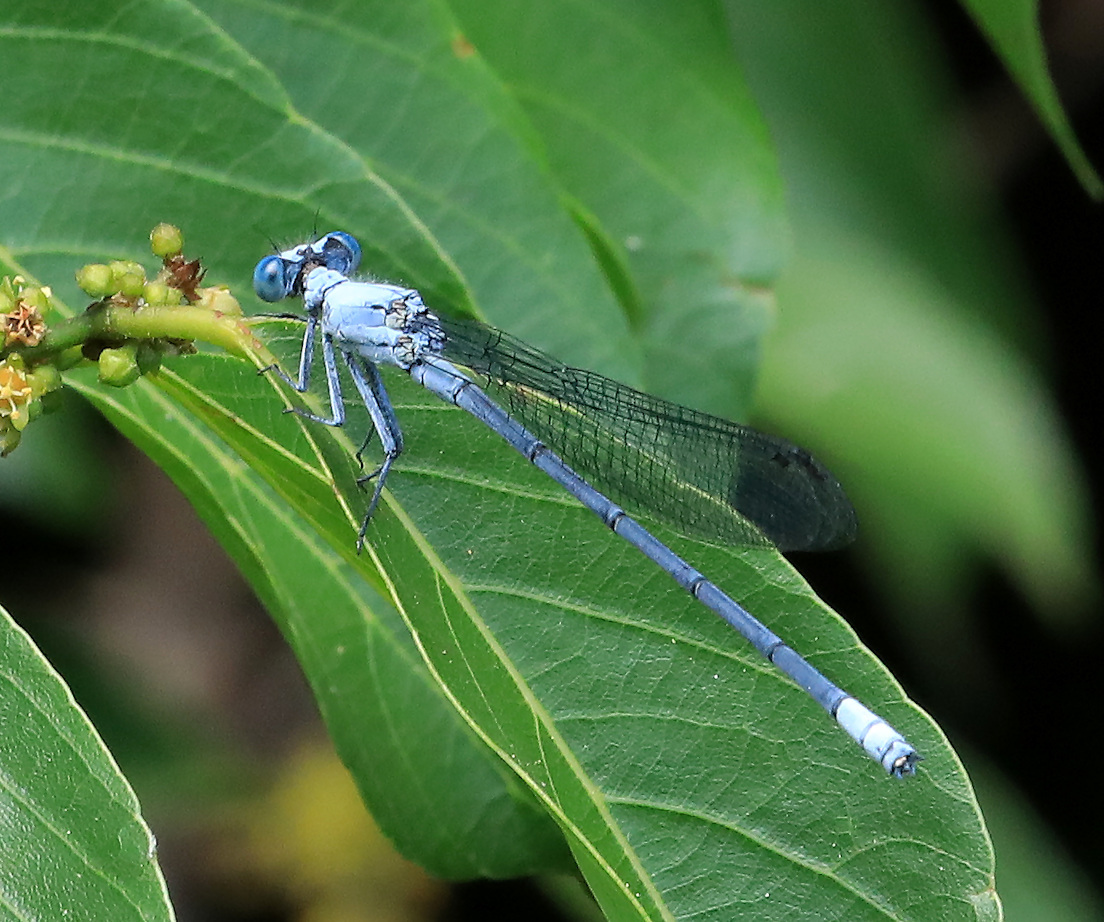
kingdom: Animalia
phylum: Arthropoda
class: Insecta
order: Odonata
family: Platycnemididae
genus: Mesocnemis
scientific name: Mesocnemis singularis
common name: Common riverjack
